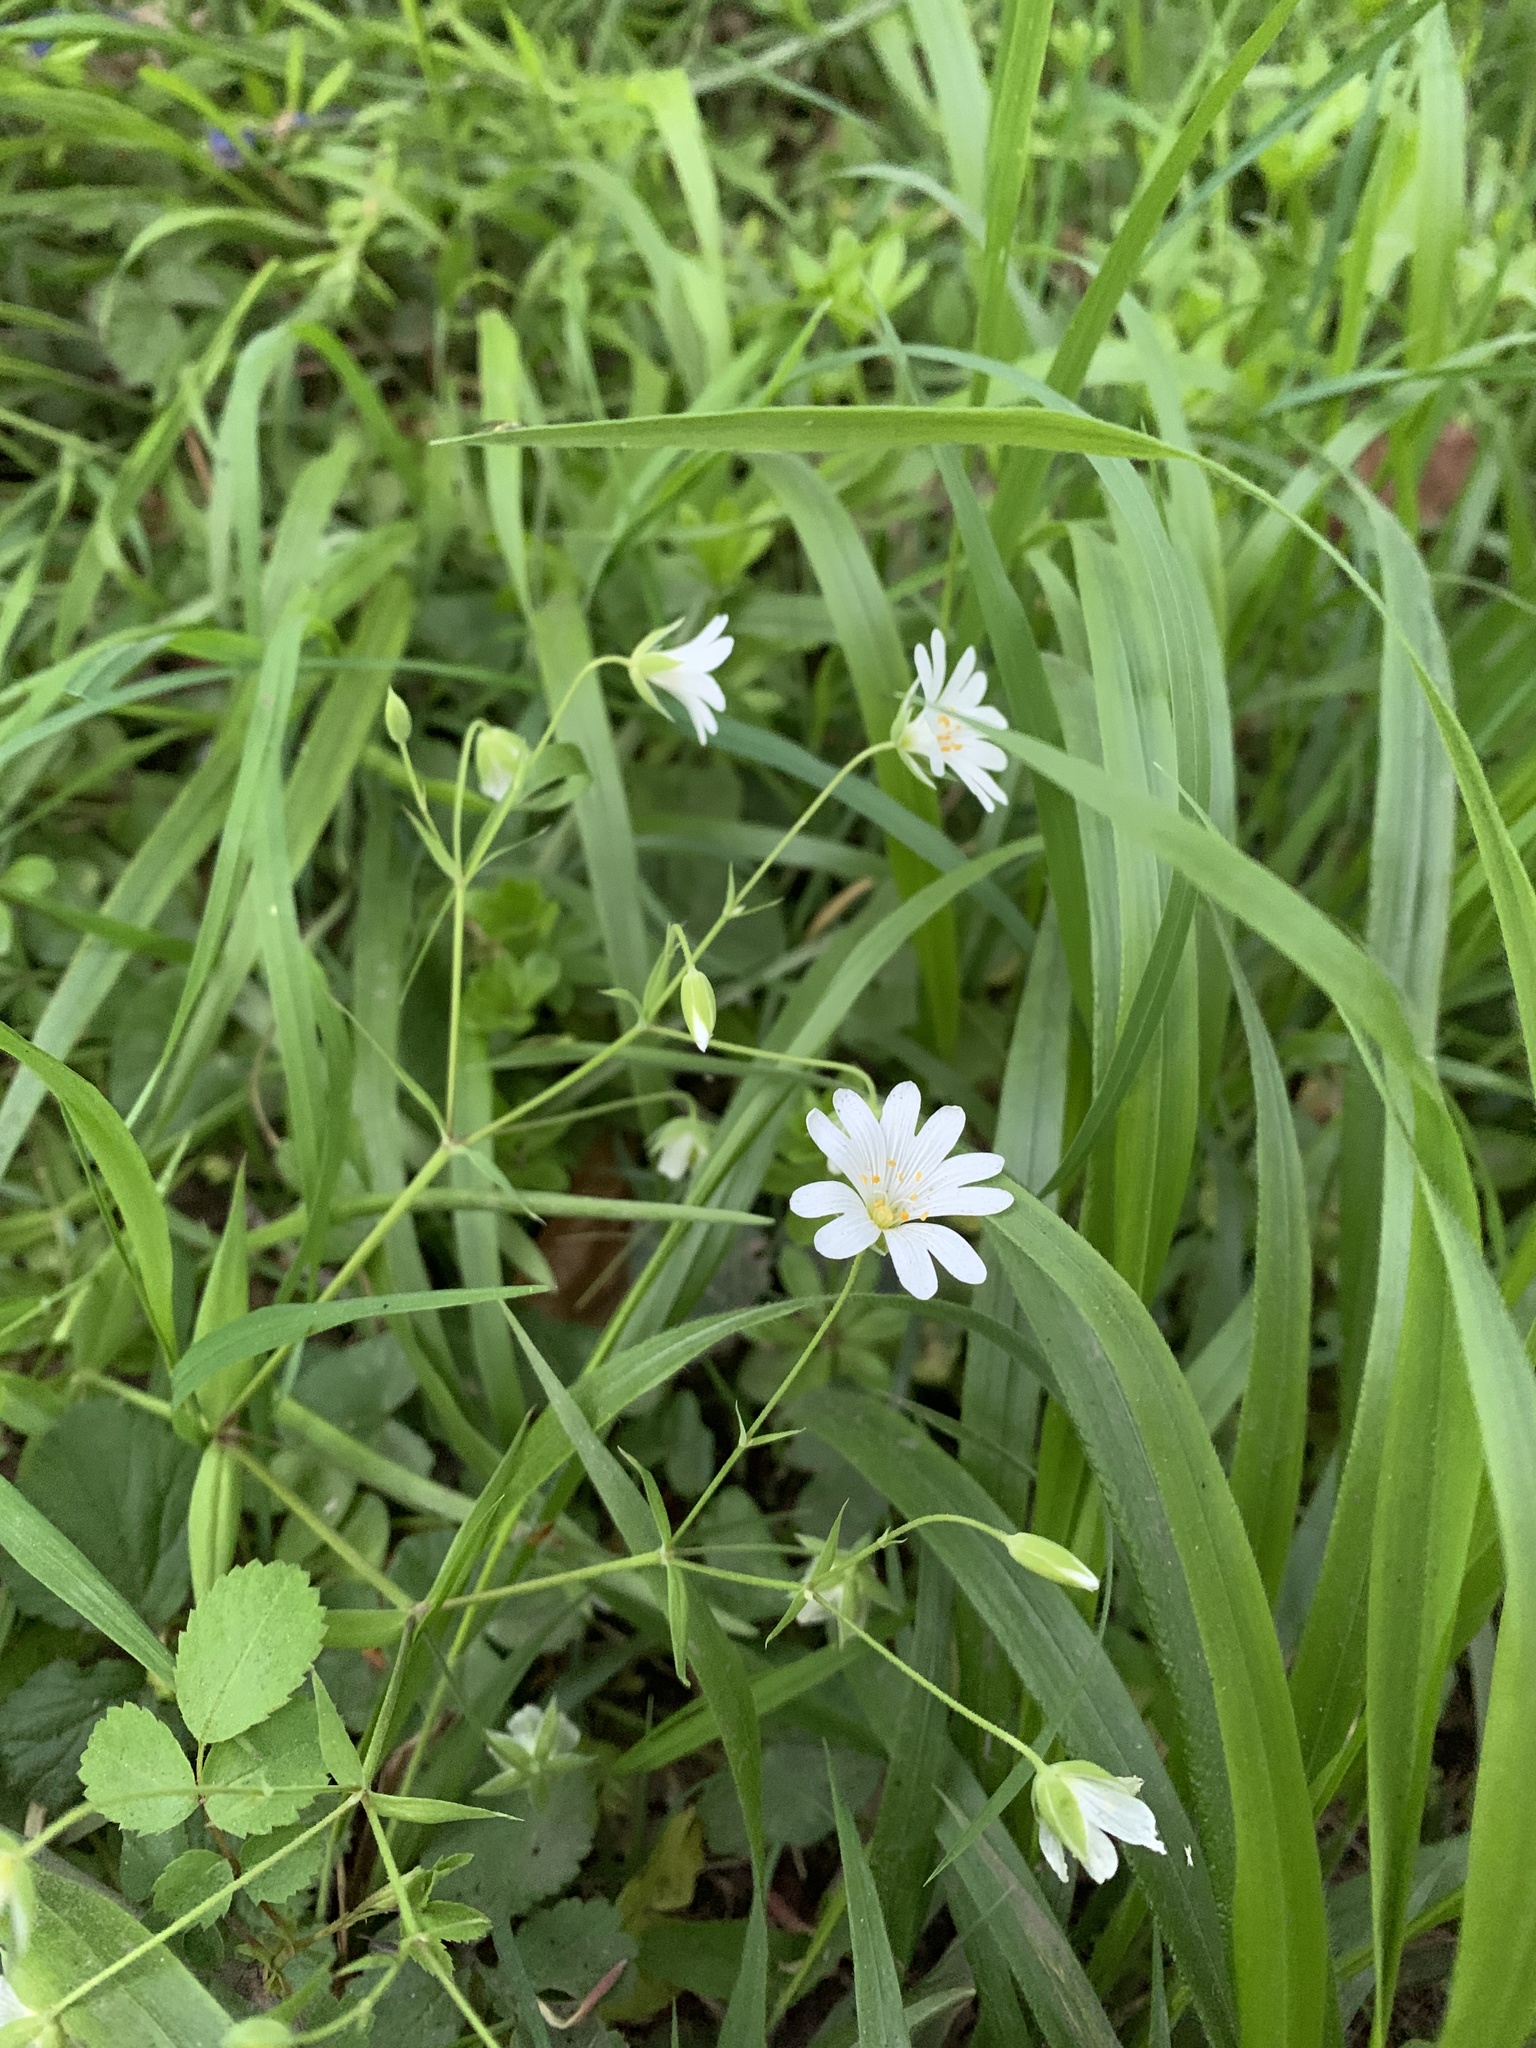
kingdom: Plantae
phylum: Tracheophyta
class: Magnoliopsida
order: Caryophyllales
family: Caryophyllaceae
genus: Rabelera
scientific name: Rabelera holostea
